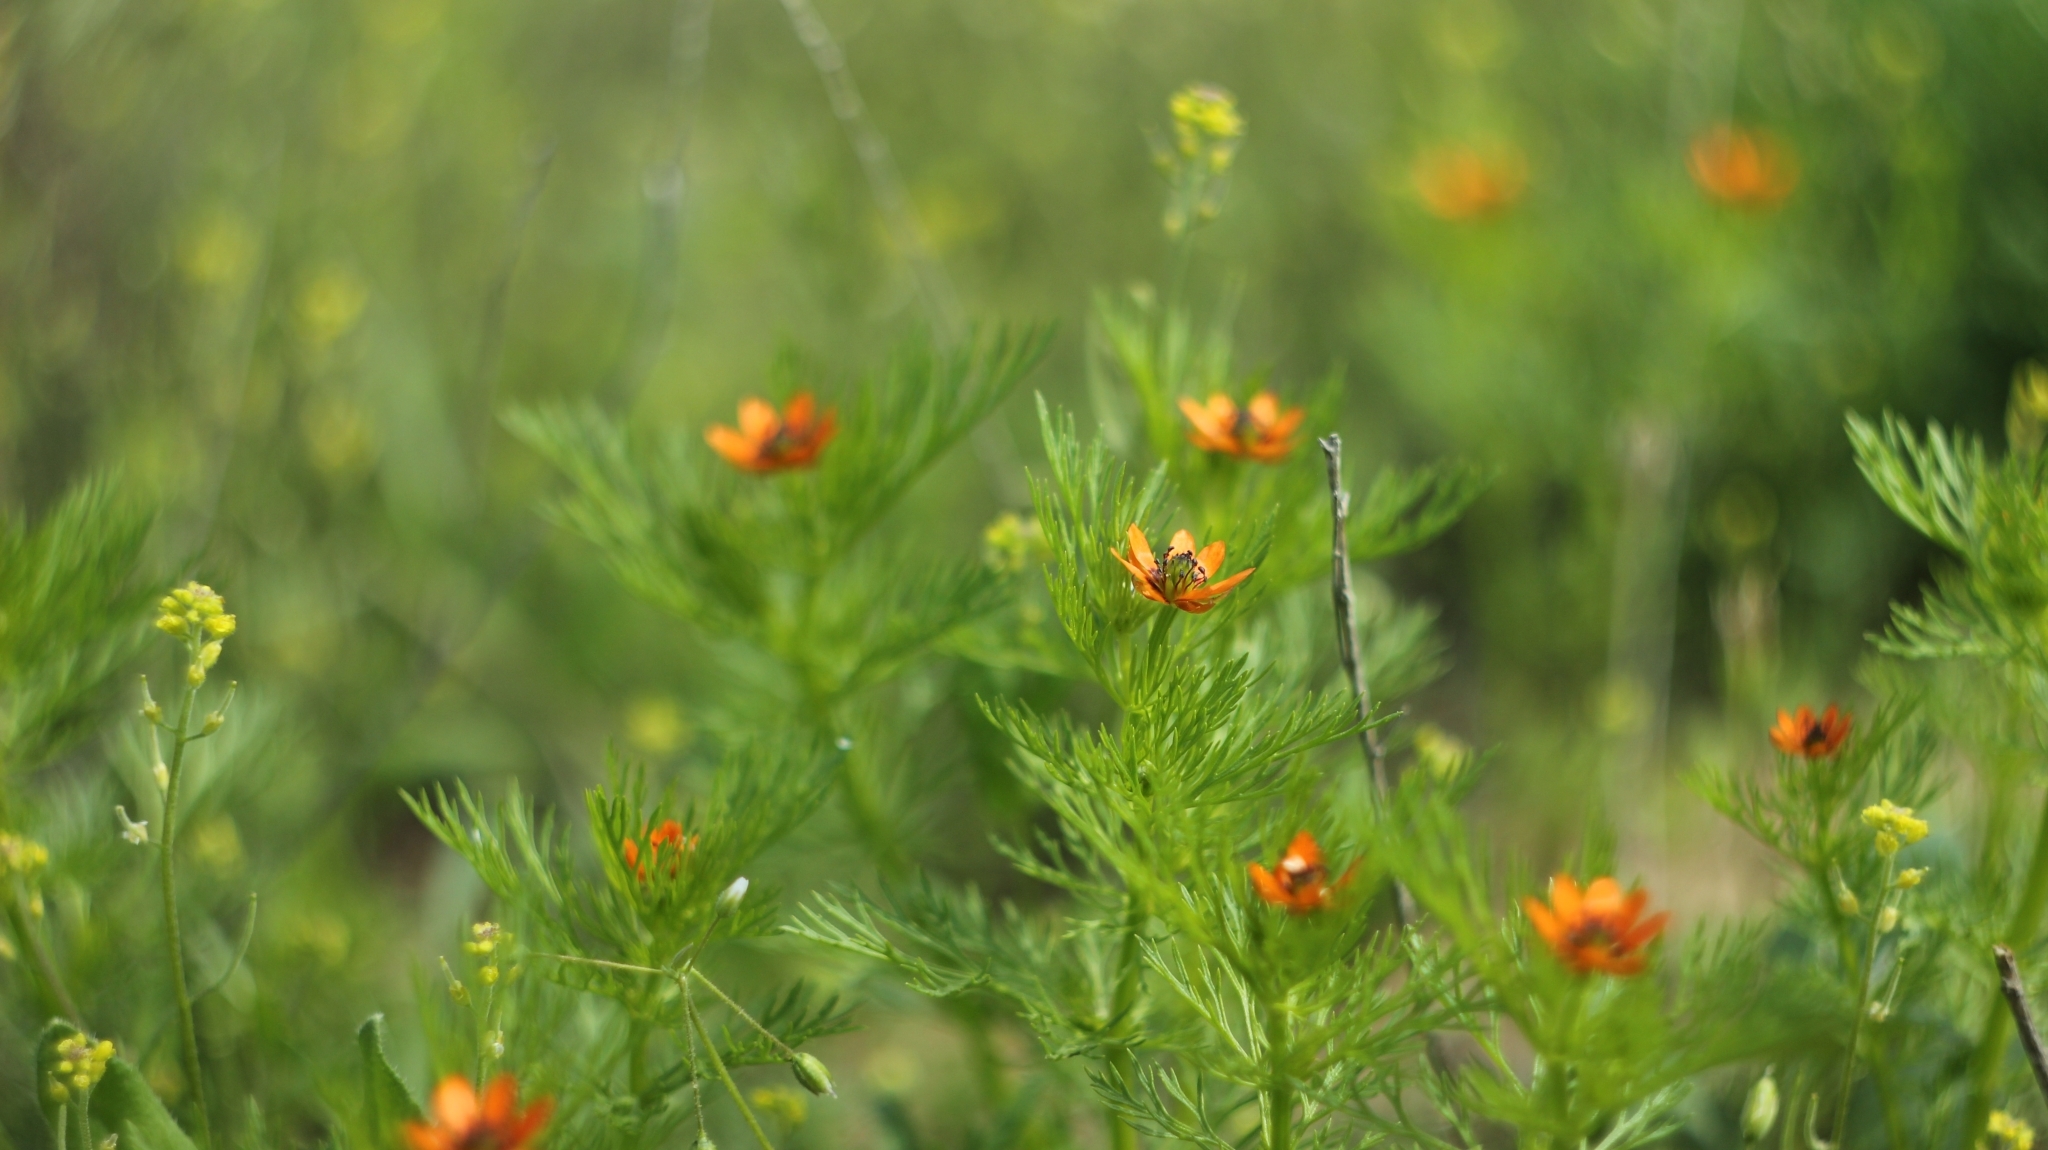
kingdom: Plantae
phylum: Tracheophyta
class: Magnoliopsida
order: Ranunculales
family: Ranunculaceae
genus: Adonis
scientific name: Adonis aestivalis
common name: Summer pheasant's-eye
